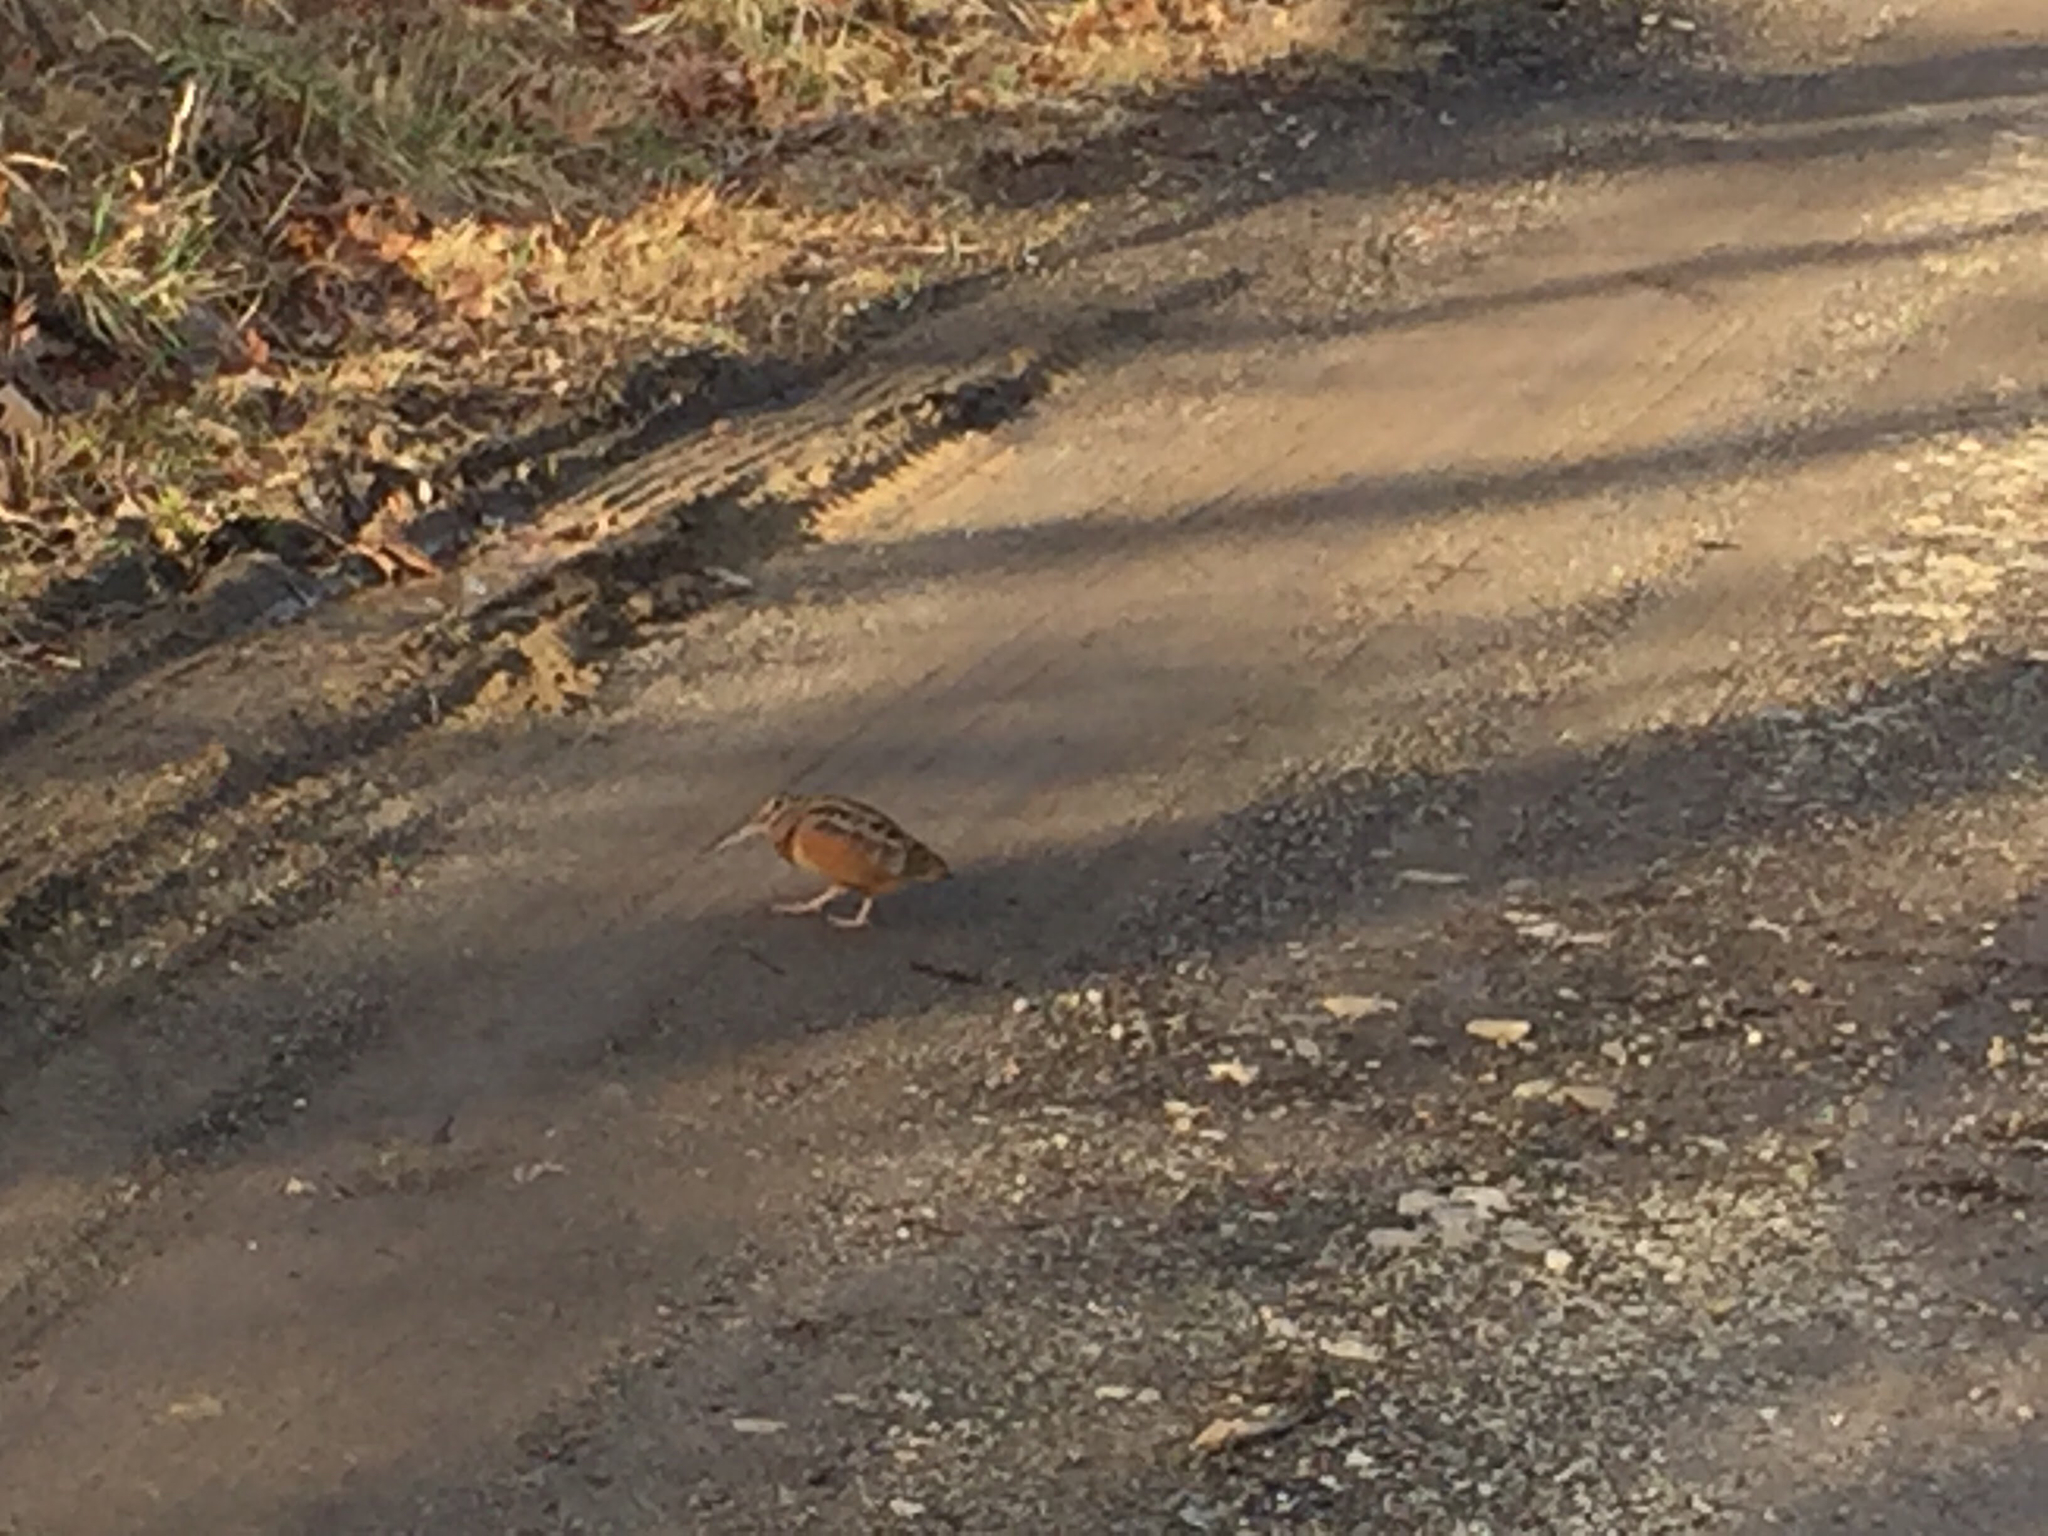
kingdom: Animalia
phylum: Chordata
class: Aves
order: Charadriiformes
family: Scolopacidae
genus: Scolopax
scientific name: Scolopax minor
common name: American woodcock
